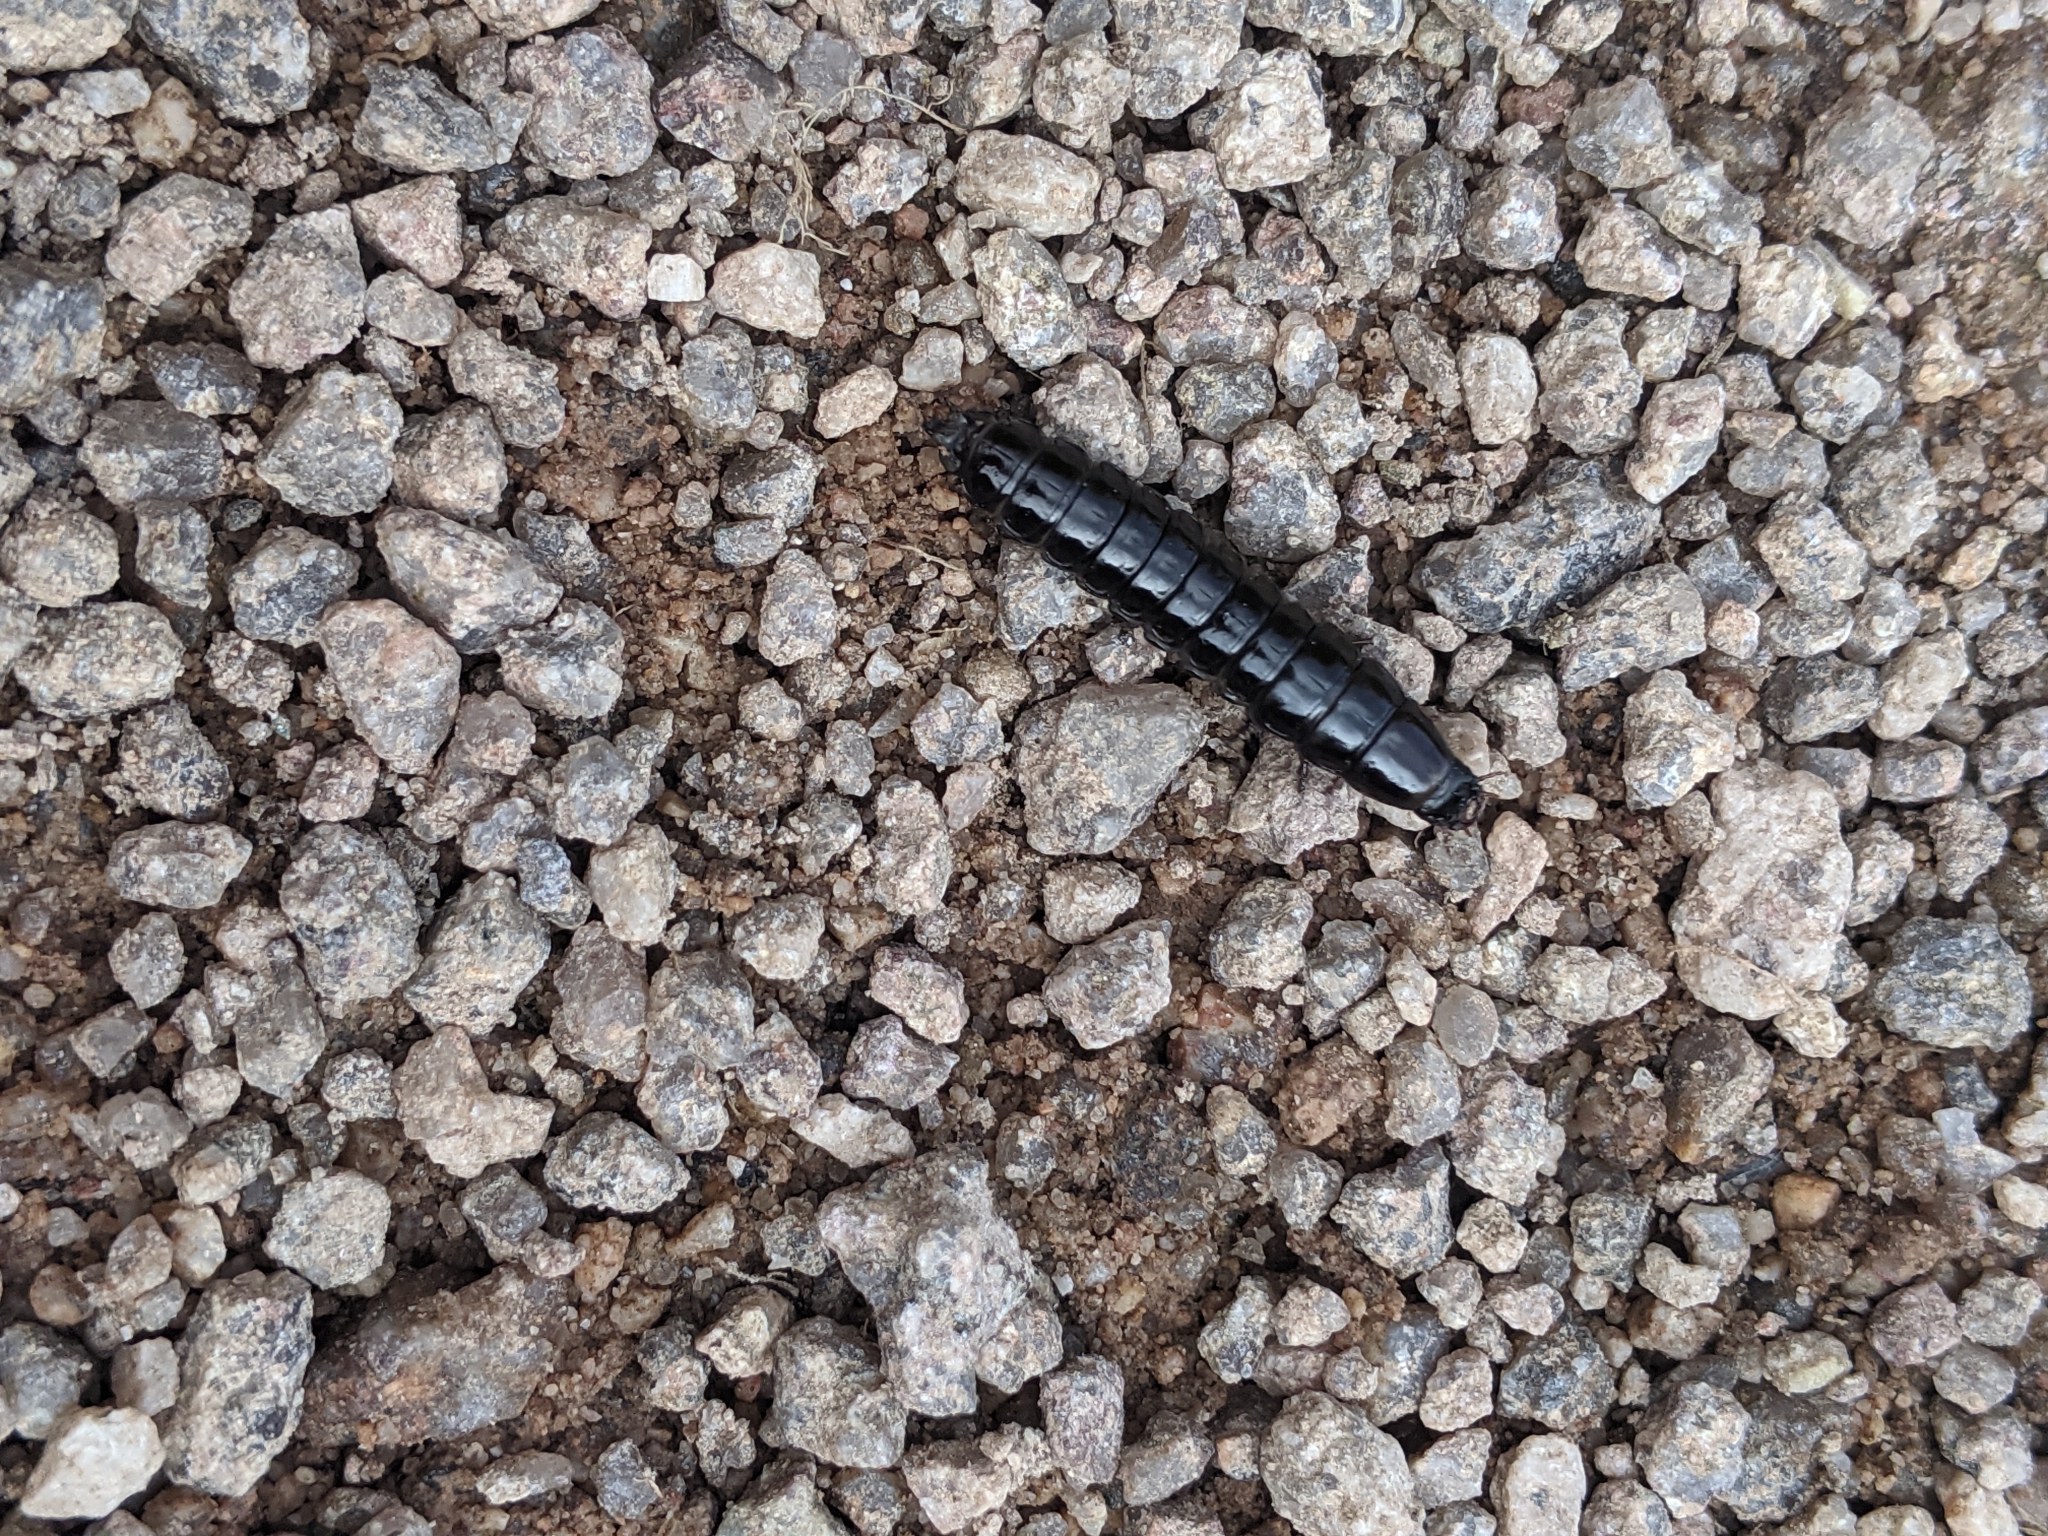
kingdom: Animalia
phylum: Arthropoda
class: Insecta
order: Coleoptera
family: Carabidae
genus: Carabus
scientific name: Carabus
